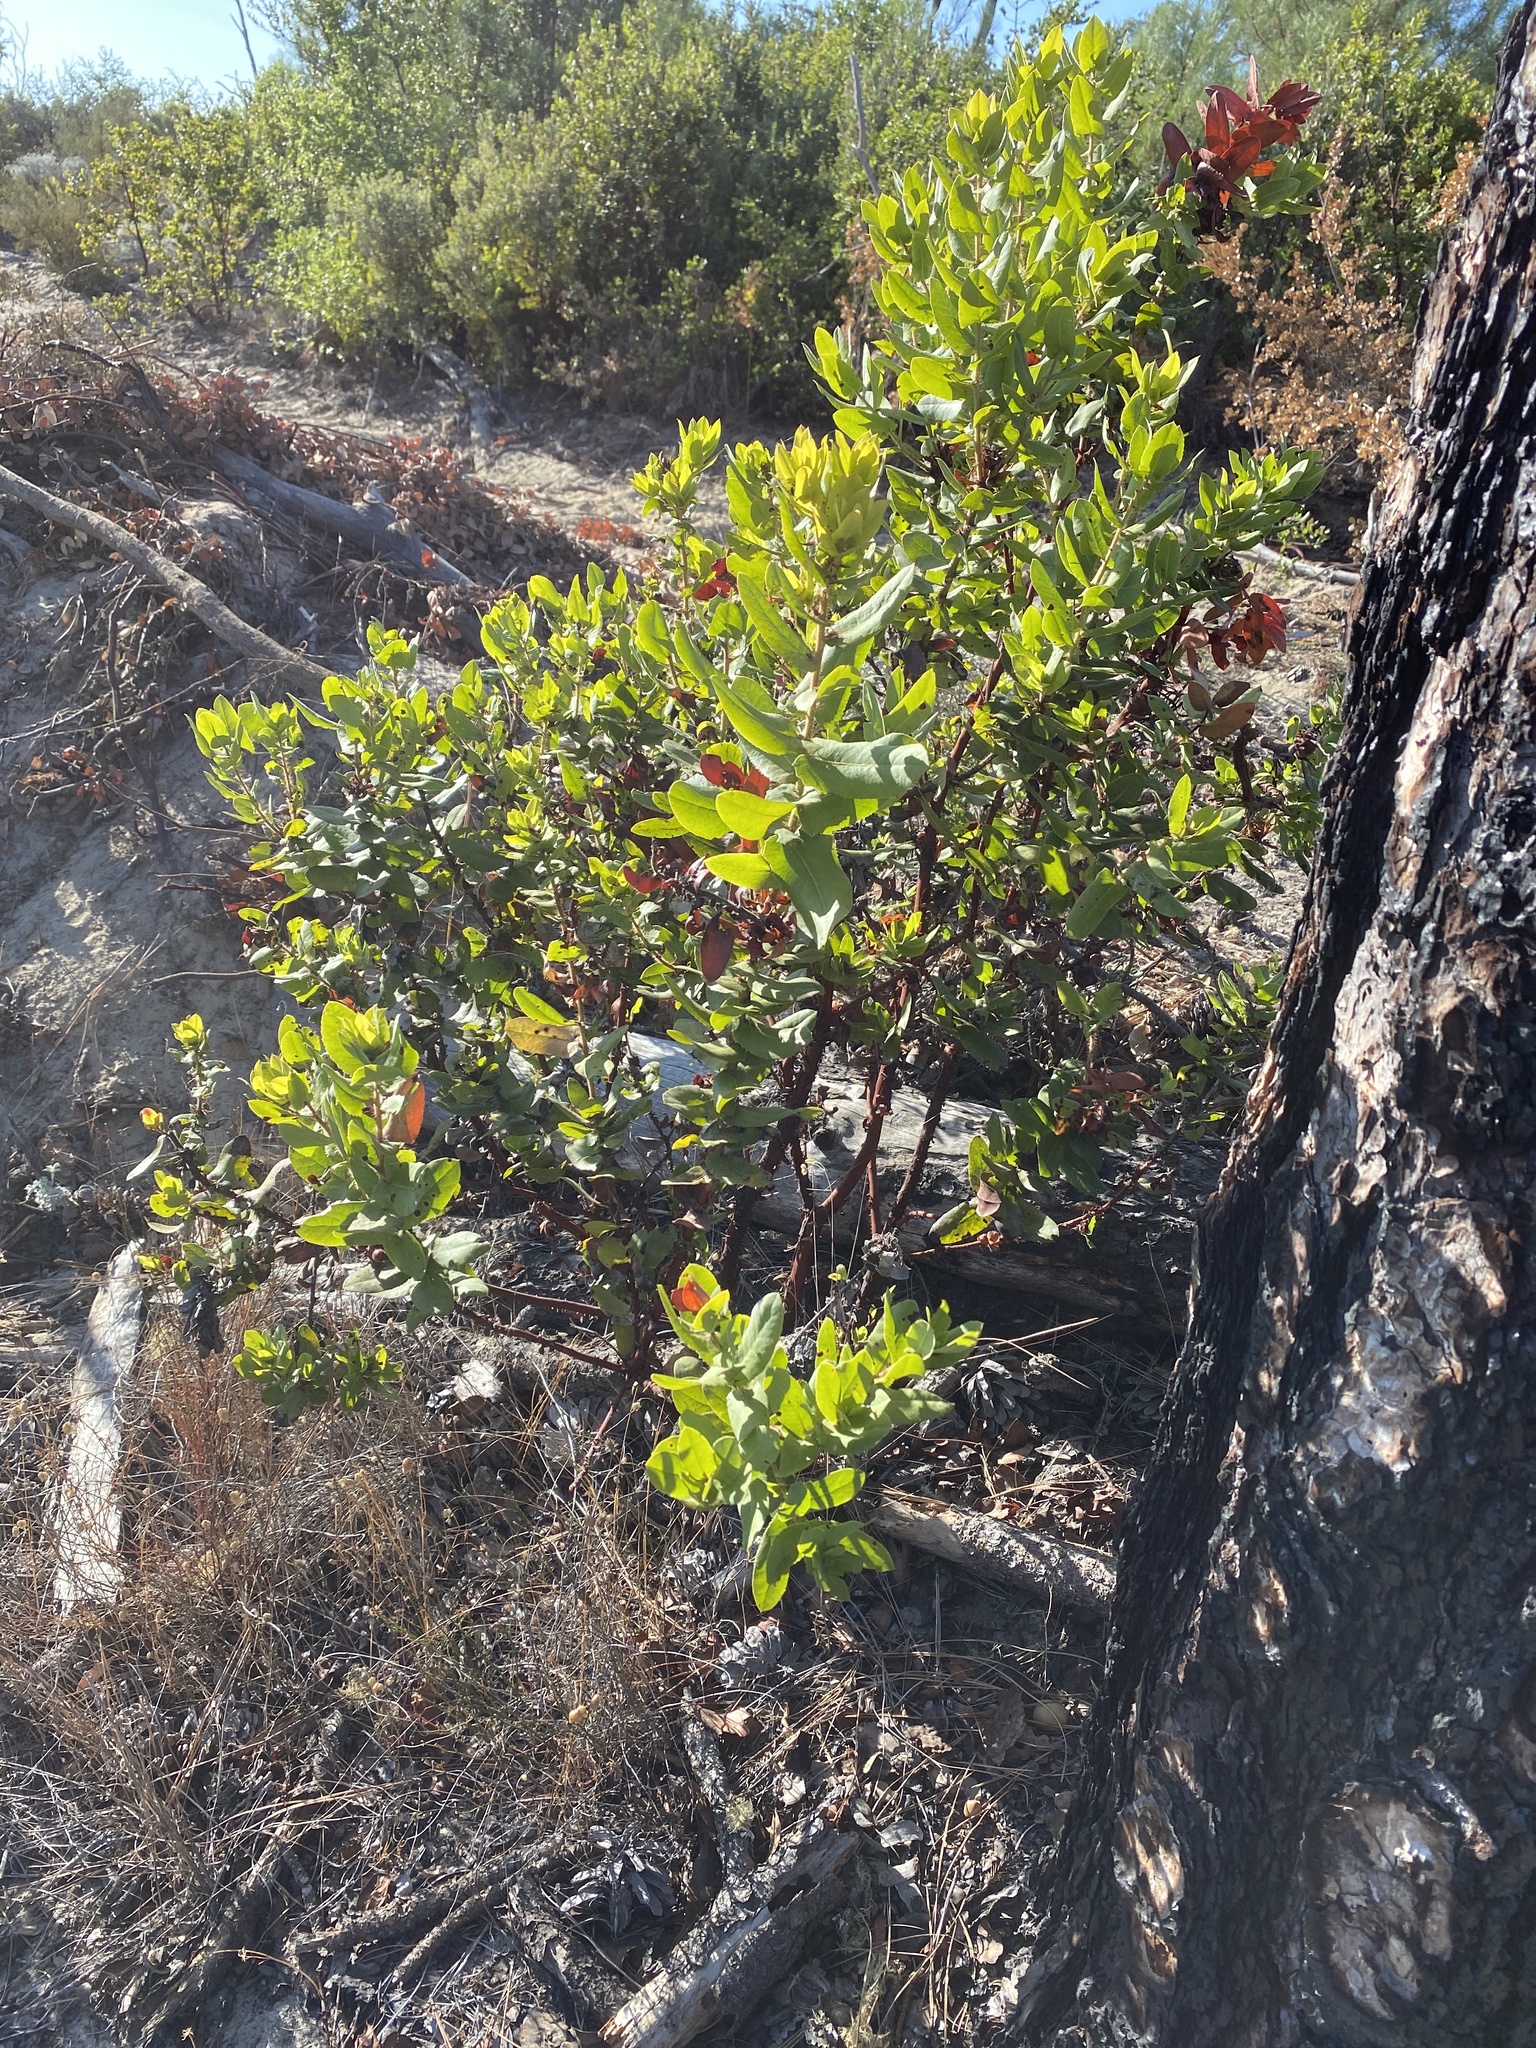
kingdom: Plantae
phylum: Tracheophyta
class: Magnoliopsida
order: Ericales
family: Ericaceae
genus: Arctostaphylos
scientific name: Arctostaphylos andersonii
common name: Santa cruz manzanita
